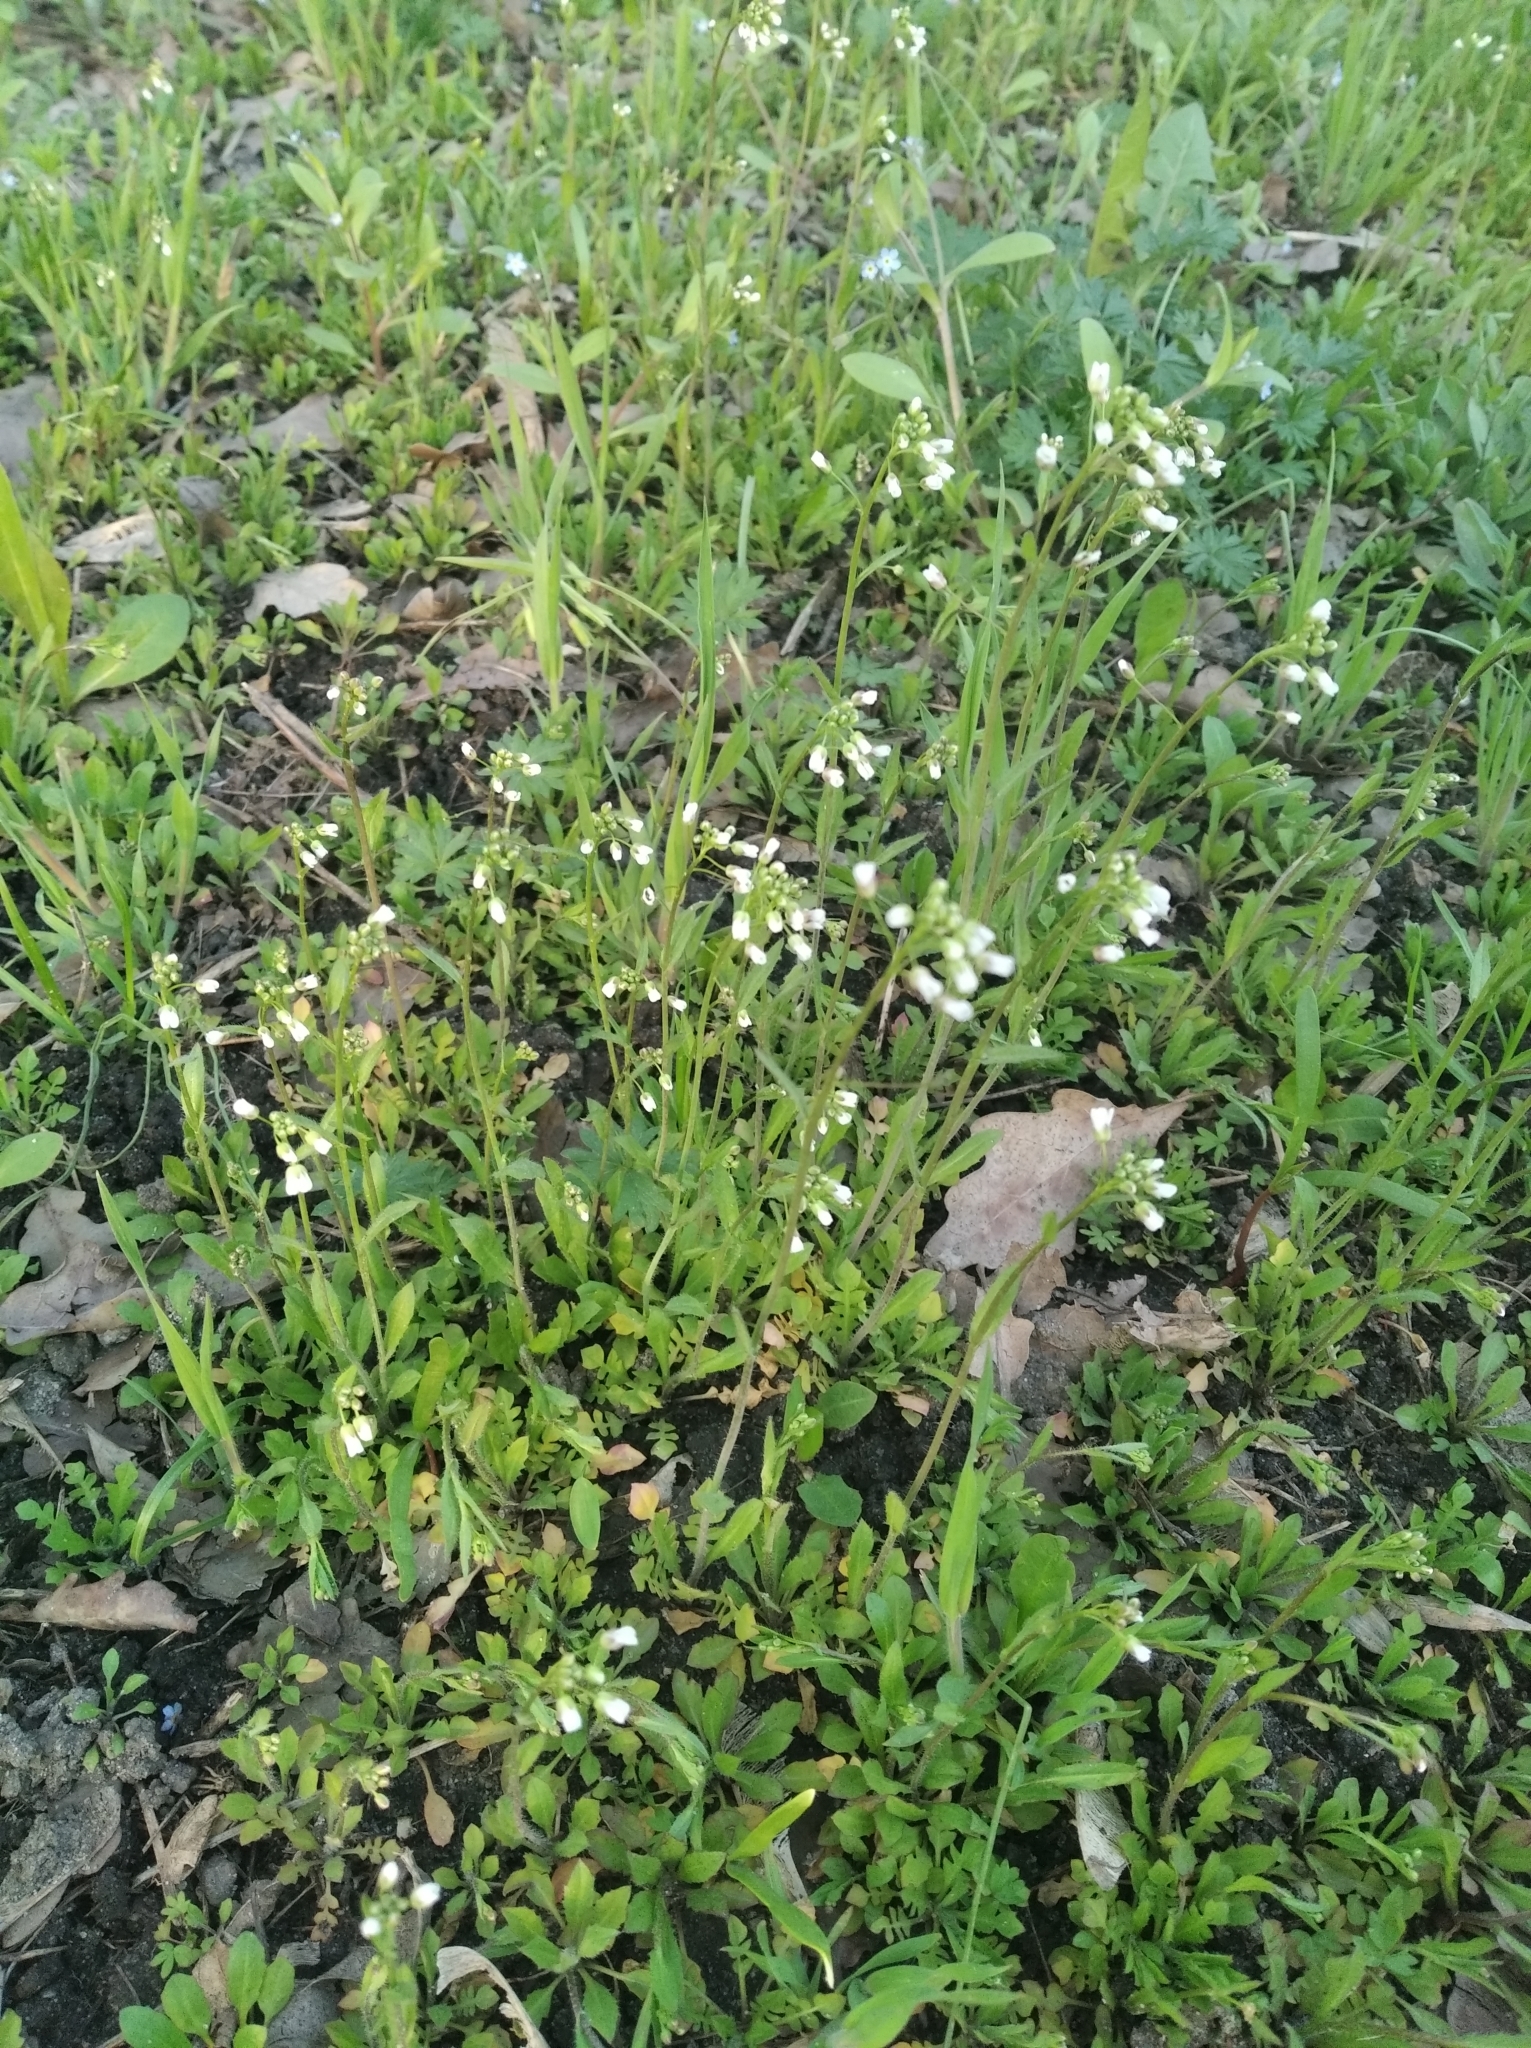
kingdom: Plantae
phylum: Tracheophyta
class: Magnoliopsida
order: Brassicales
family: Brassicaceae
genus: Capsella
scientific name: Capsella bursa-pastoris
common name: Shepherd's purse
